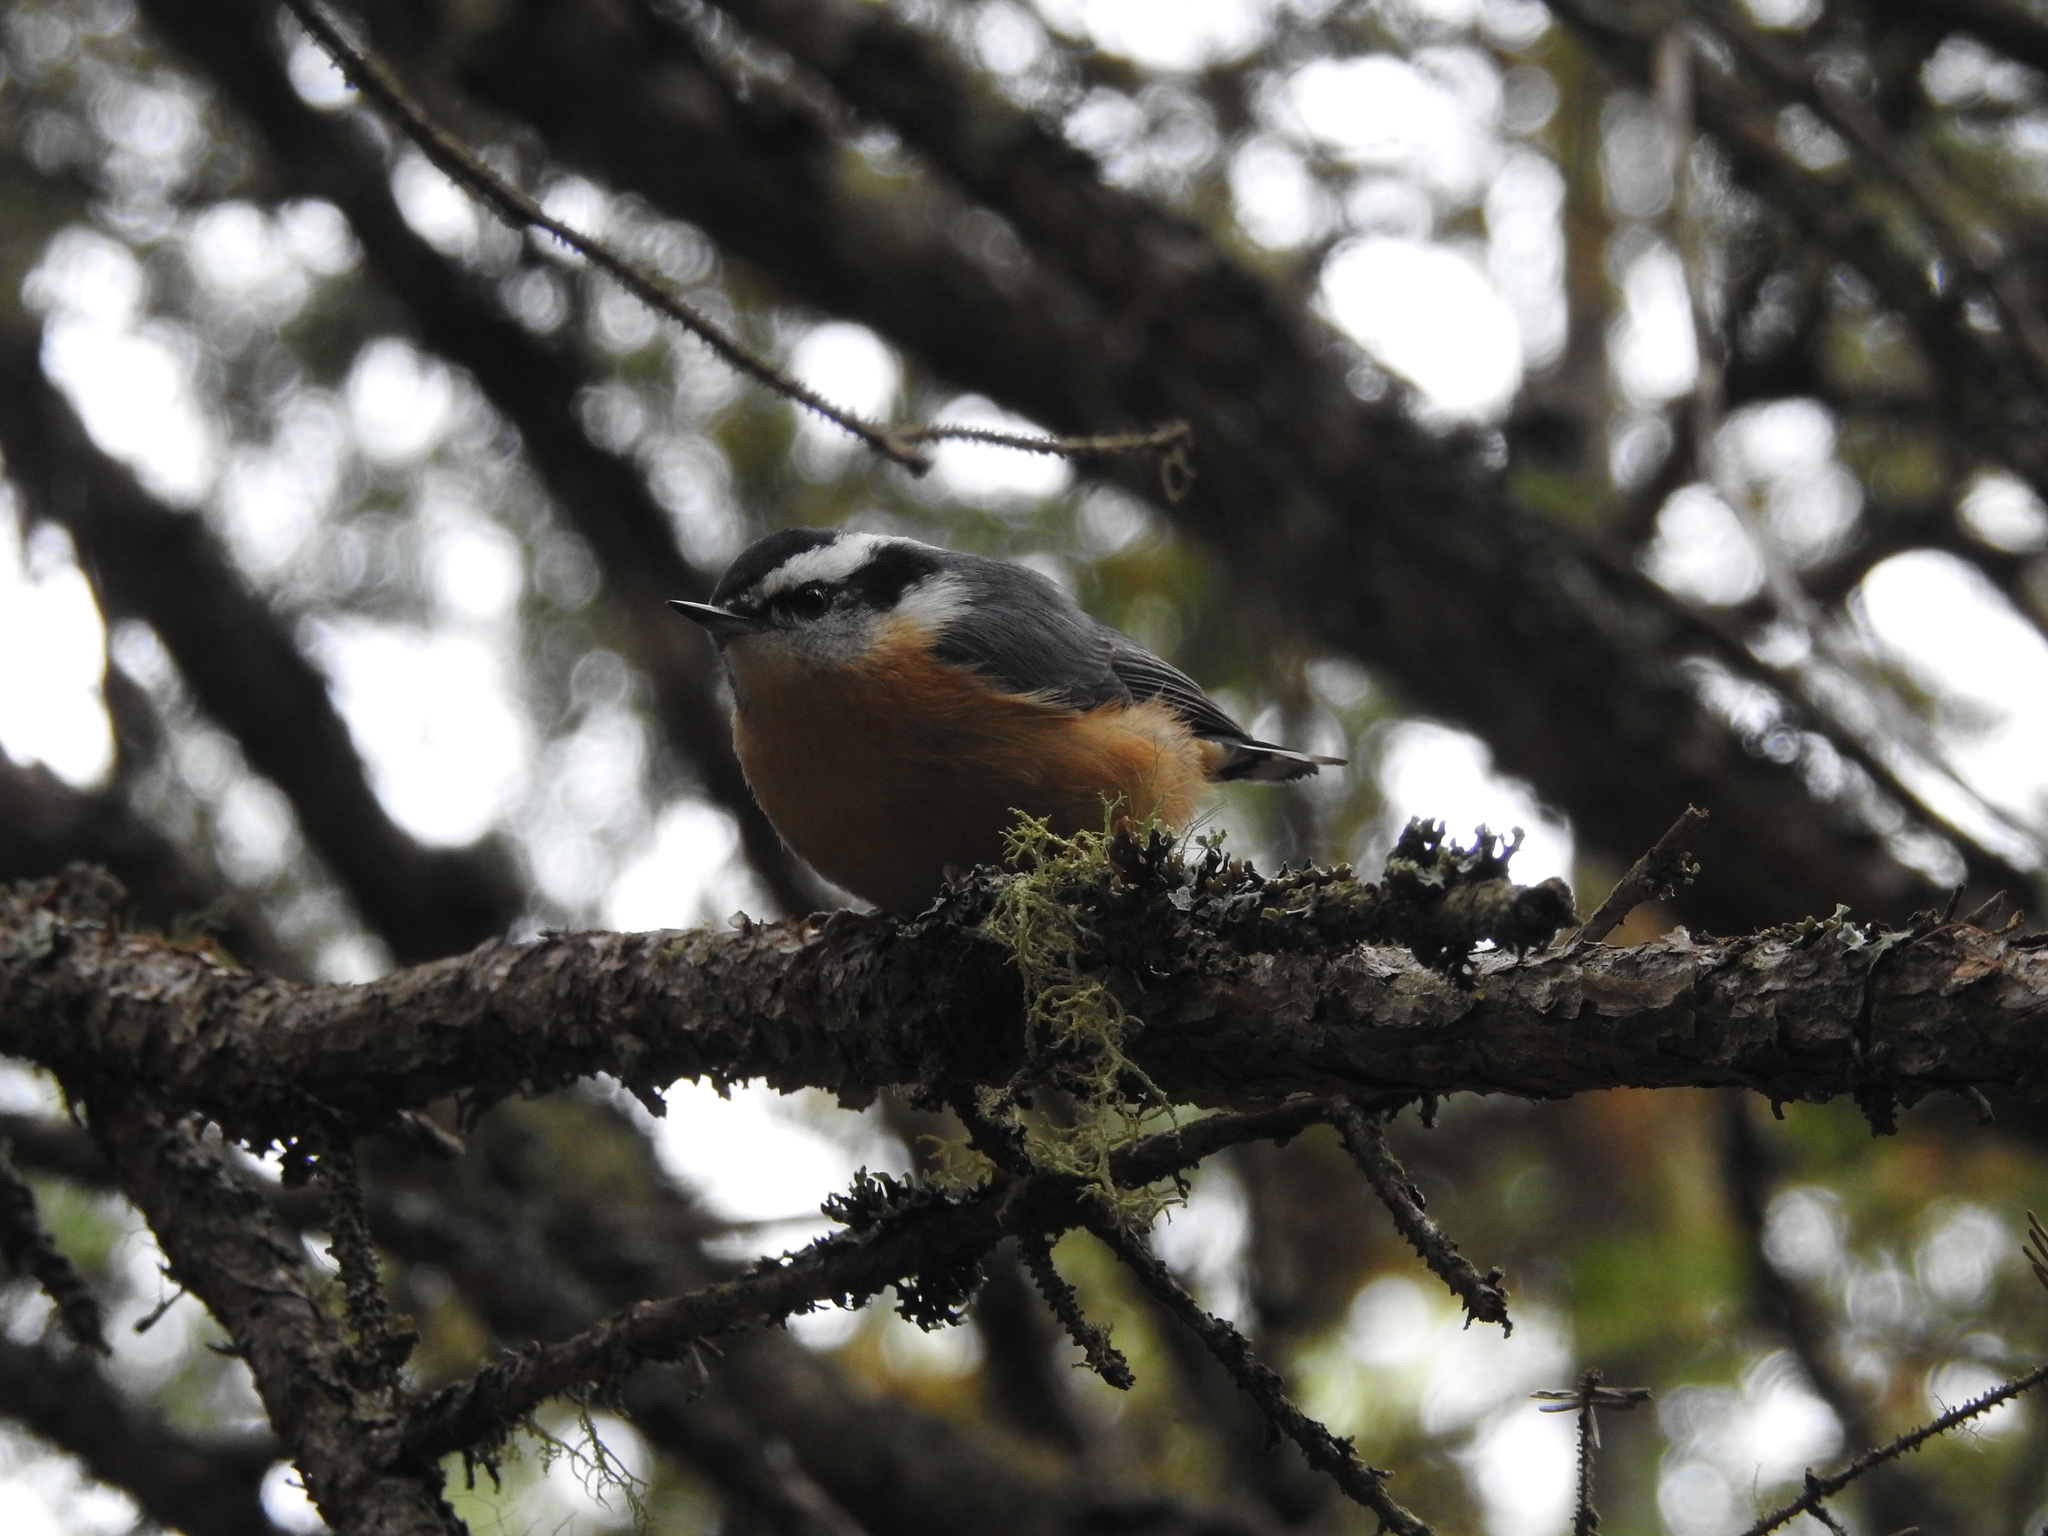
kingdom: Animalia
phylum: Chordata
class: Aves
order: Passeriformes
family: Sittidae
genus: Sitta
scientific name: Sitta canadensis
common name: Red-breasted nuthatch
